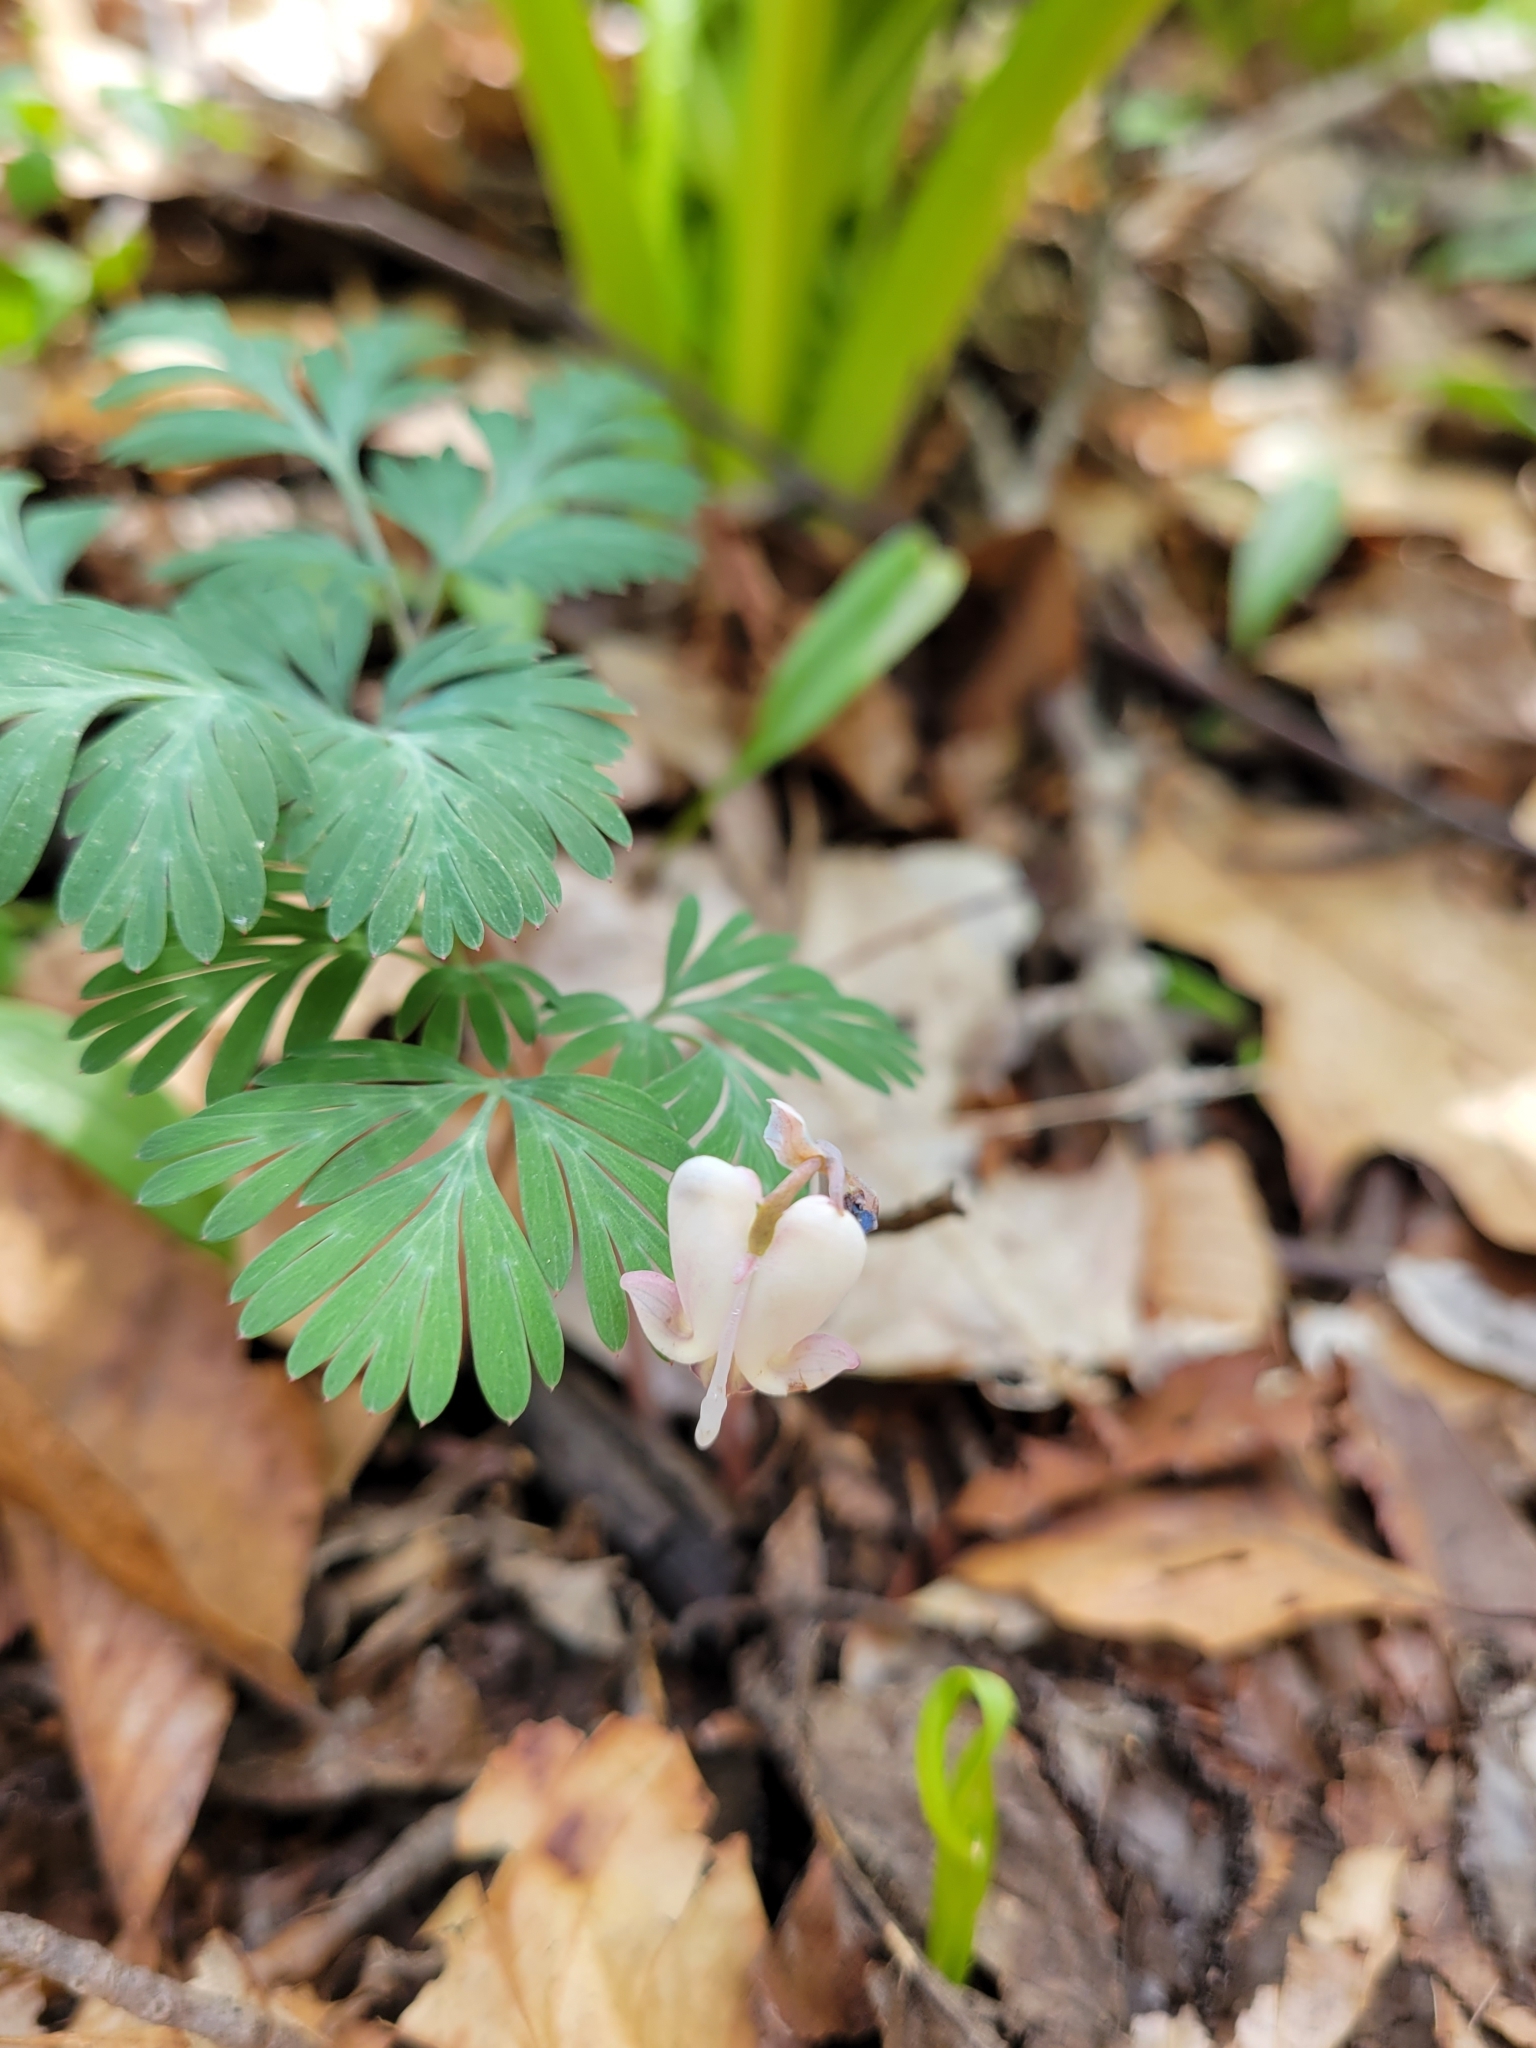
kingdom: Plantae
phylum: Tracheophyta
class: Magnoliopsida
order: Ranunculales
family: Papaveraceae
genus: Dicentra
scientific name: Dicentra canadensis
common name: Squirrel-corn
